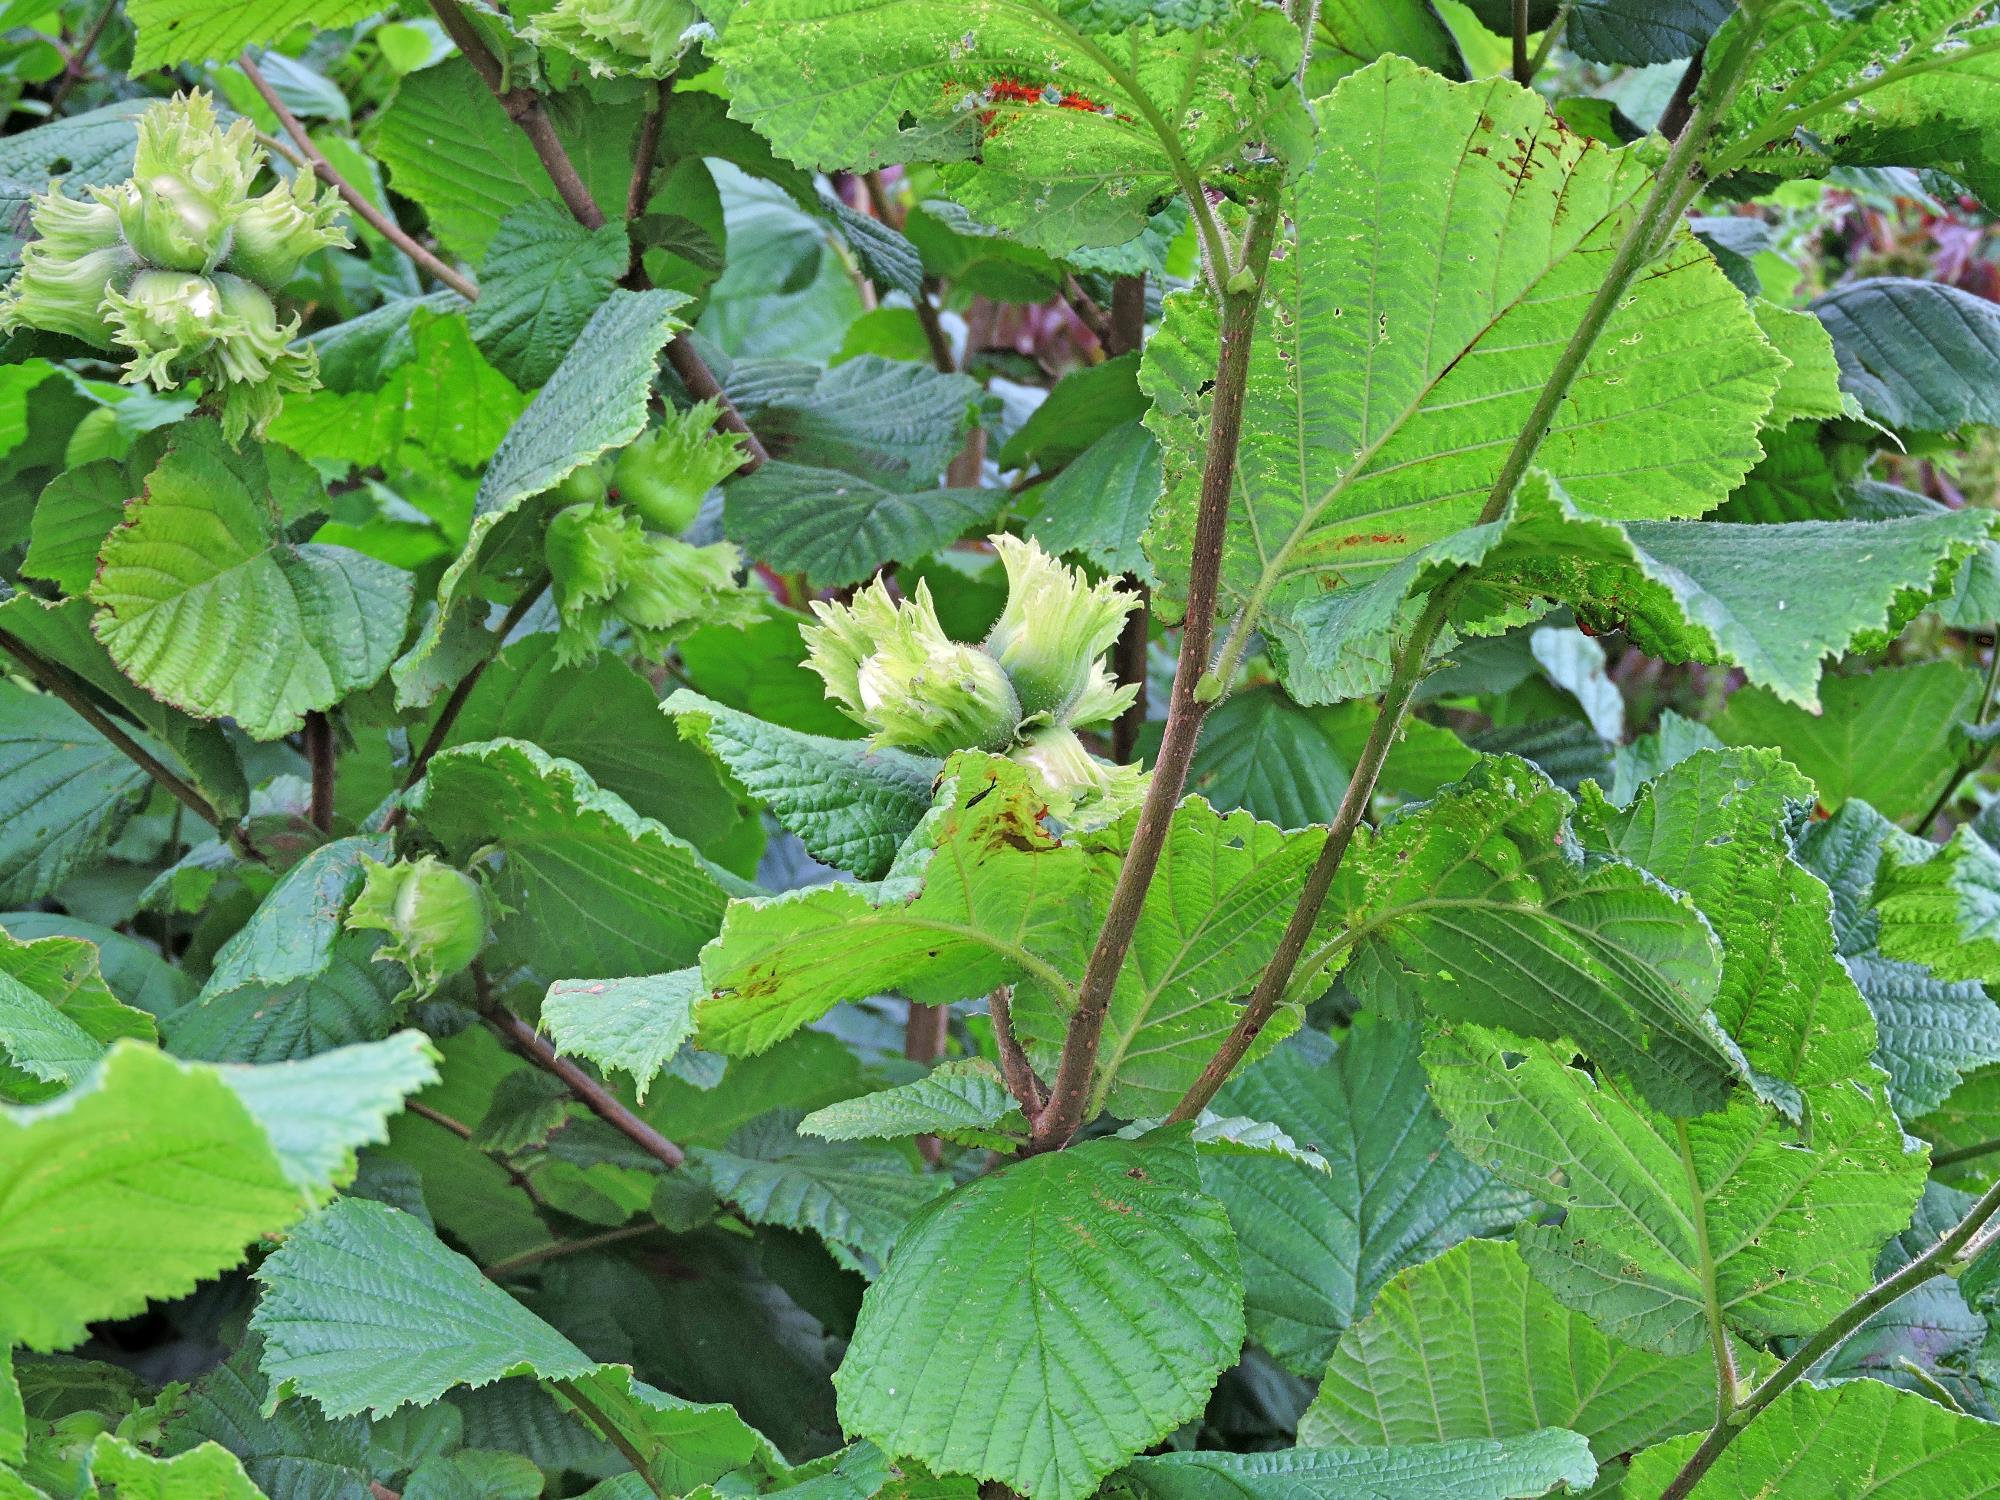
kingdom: Plantae
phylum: Tracheophyta
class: Magnoliopsida
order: Fagales
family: Betulaceae
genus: Corylus
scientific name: Corylus avellana
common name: European hazel
